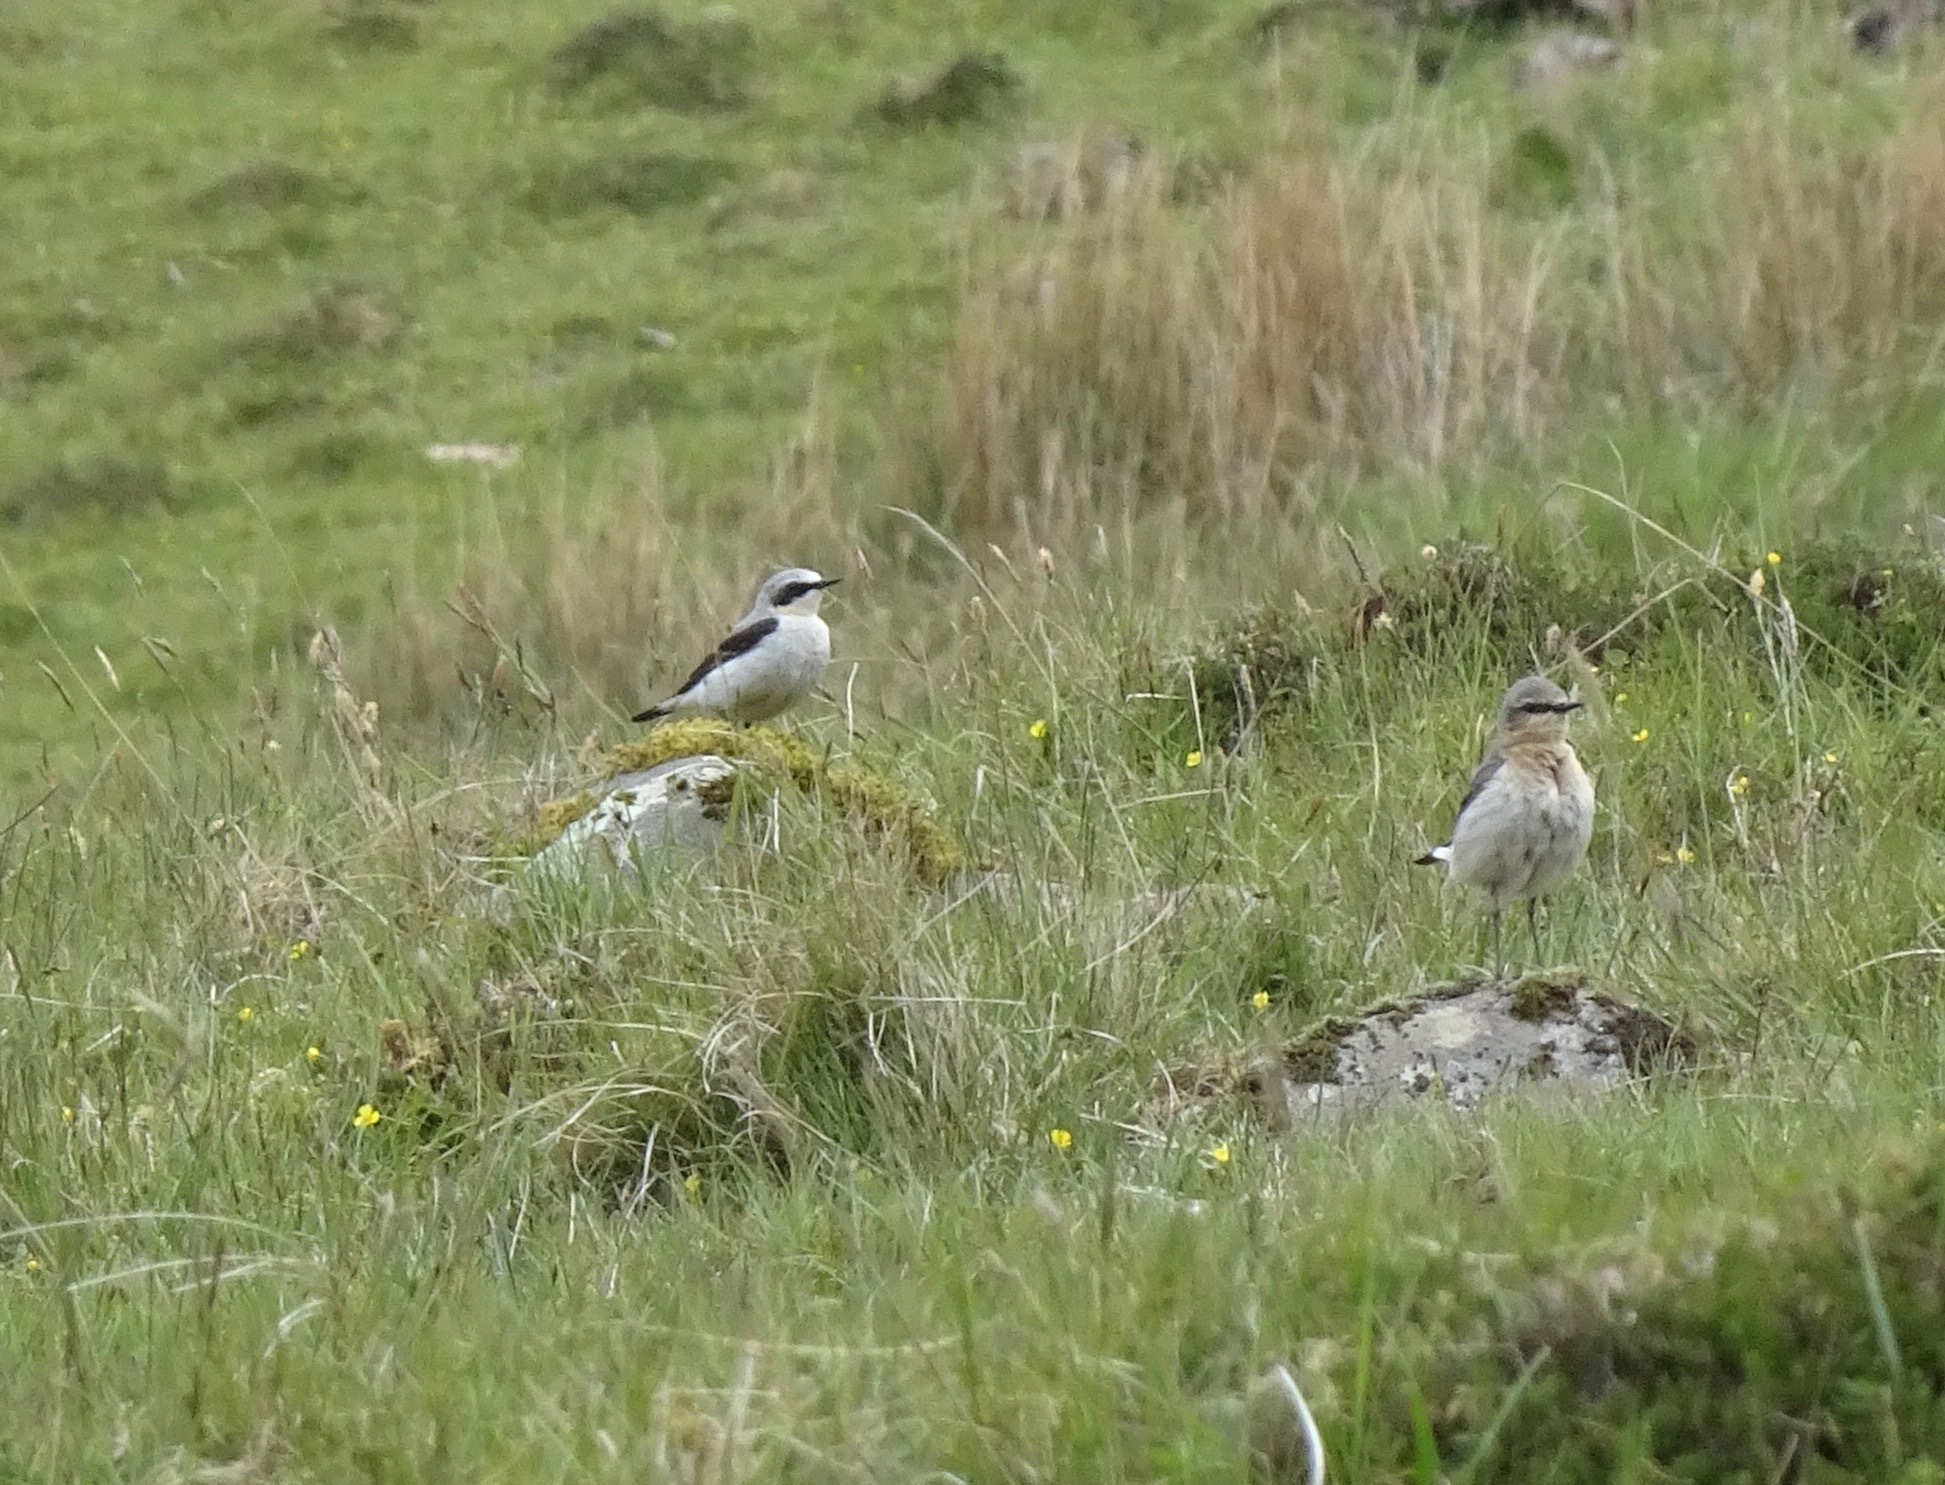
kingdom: Animalia
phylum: Chordata
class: Aves
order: Passeriformes
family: Muscicapidae
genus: Oenanthe
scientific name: Oenanthe oenanthe
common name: Northern wheatear
